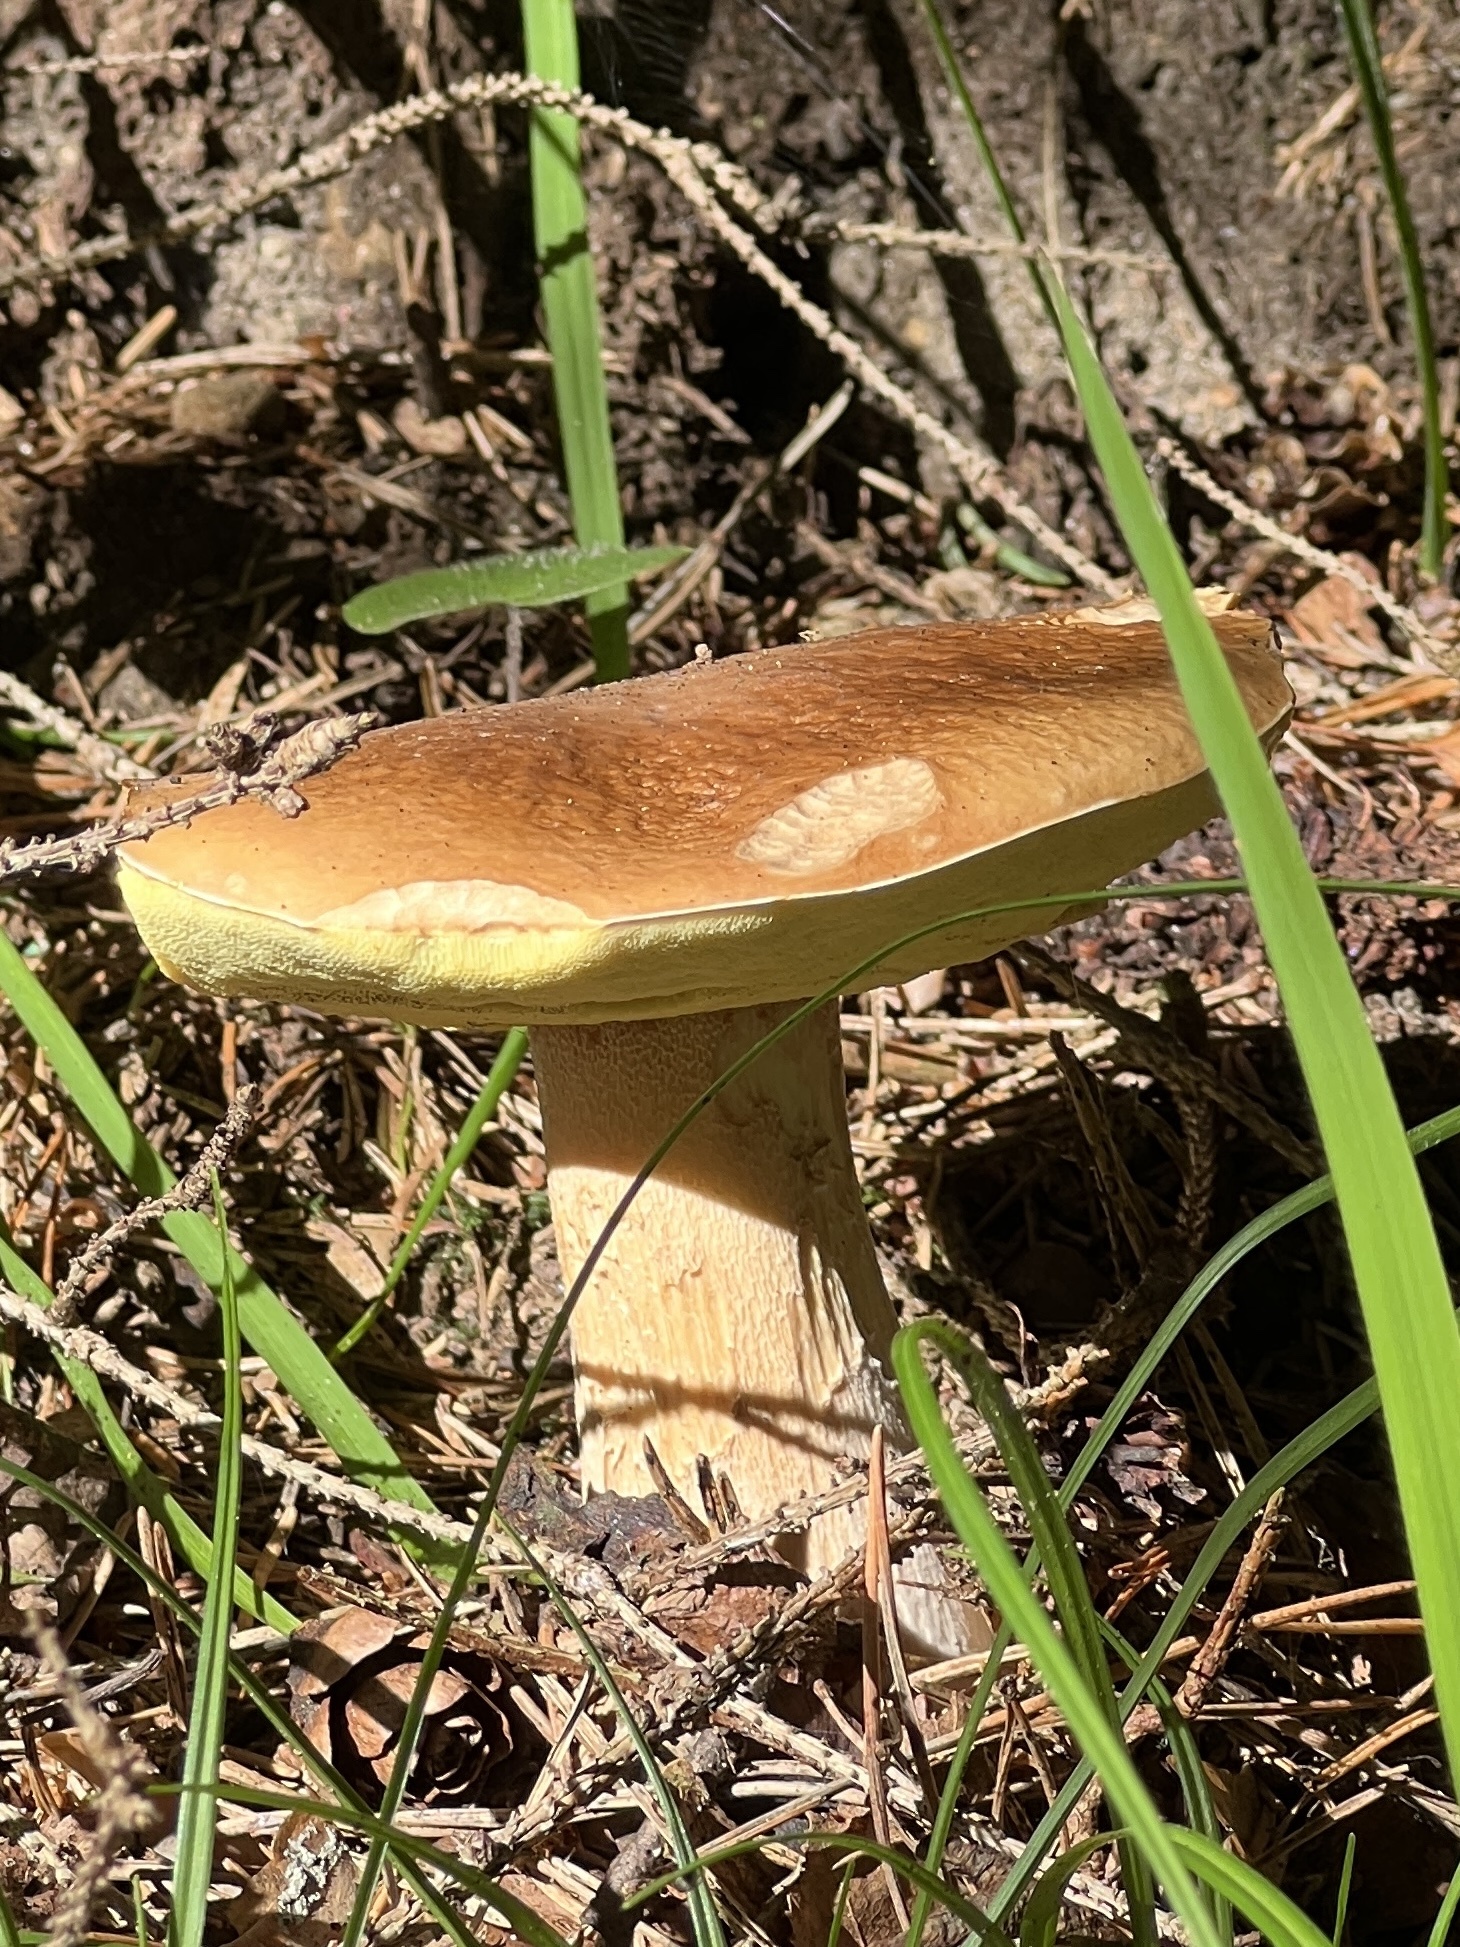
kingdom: Fungi
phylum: Basidiomycota
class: Agaricomycetes
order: Boletales
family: Boletaceae
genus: Boletus
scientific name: Boletus edulis
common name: Cep
